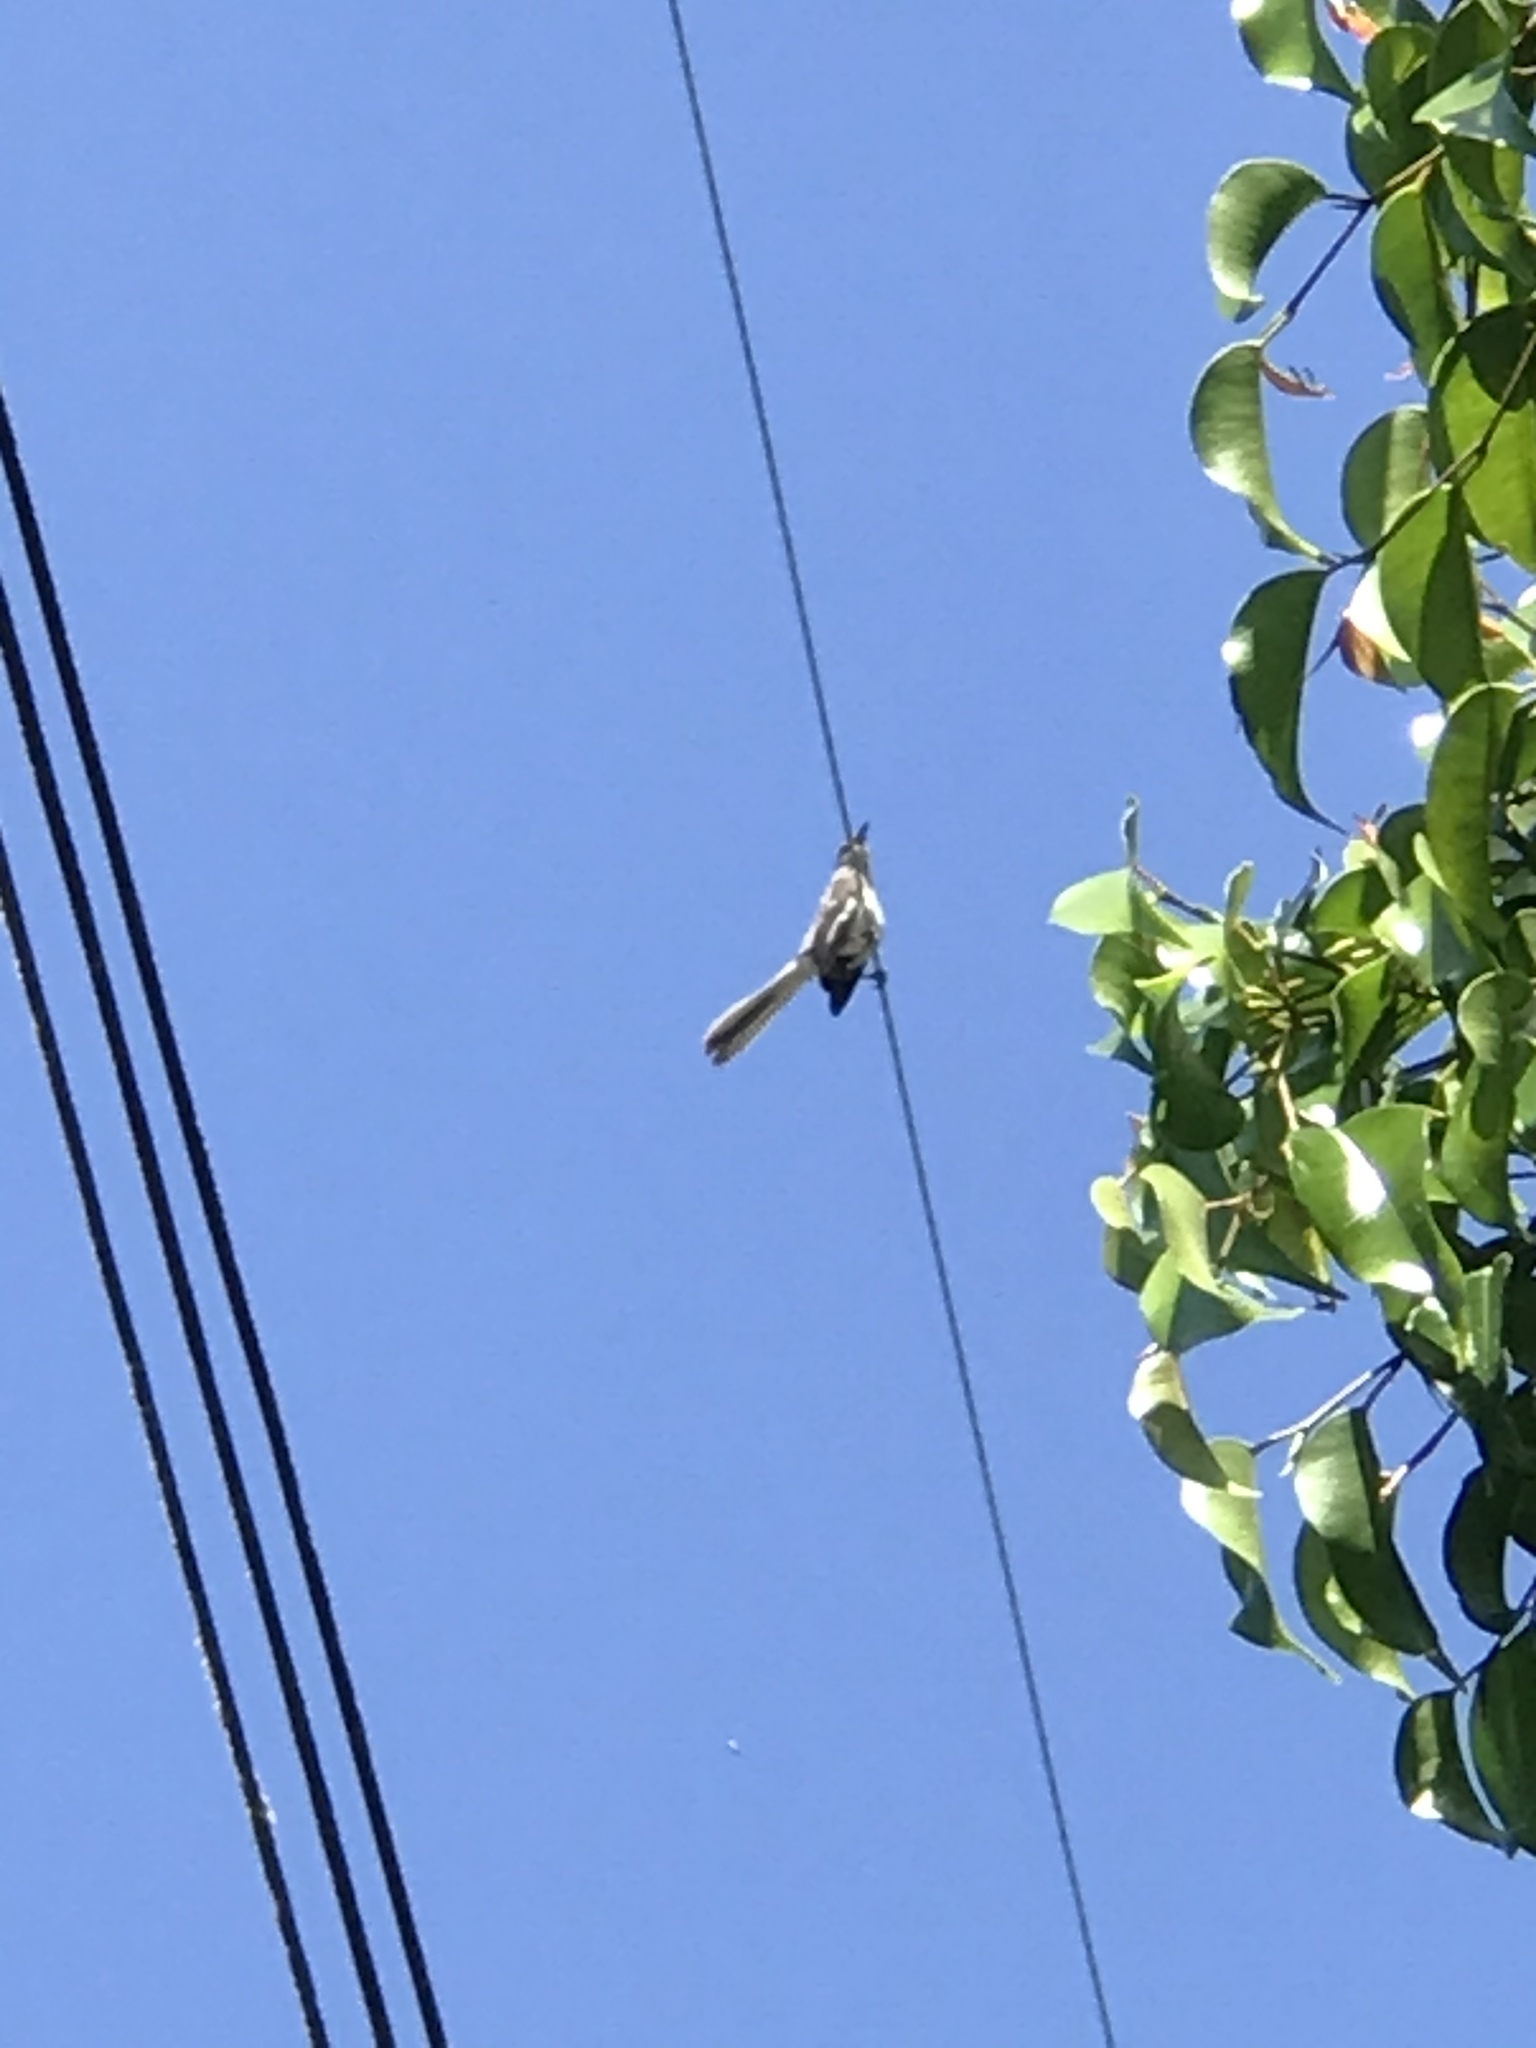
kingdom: Animalia
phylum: Chordata
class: Aves
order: Passeriformes
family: Mimidae
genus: Mimus
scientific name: Mimus polyglottos
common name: Northern mockingbird
